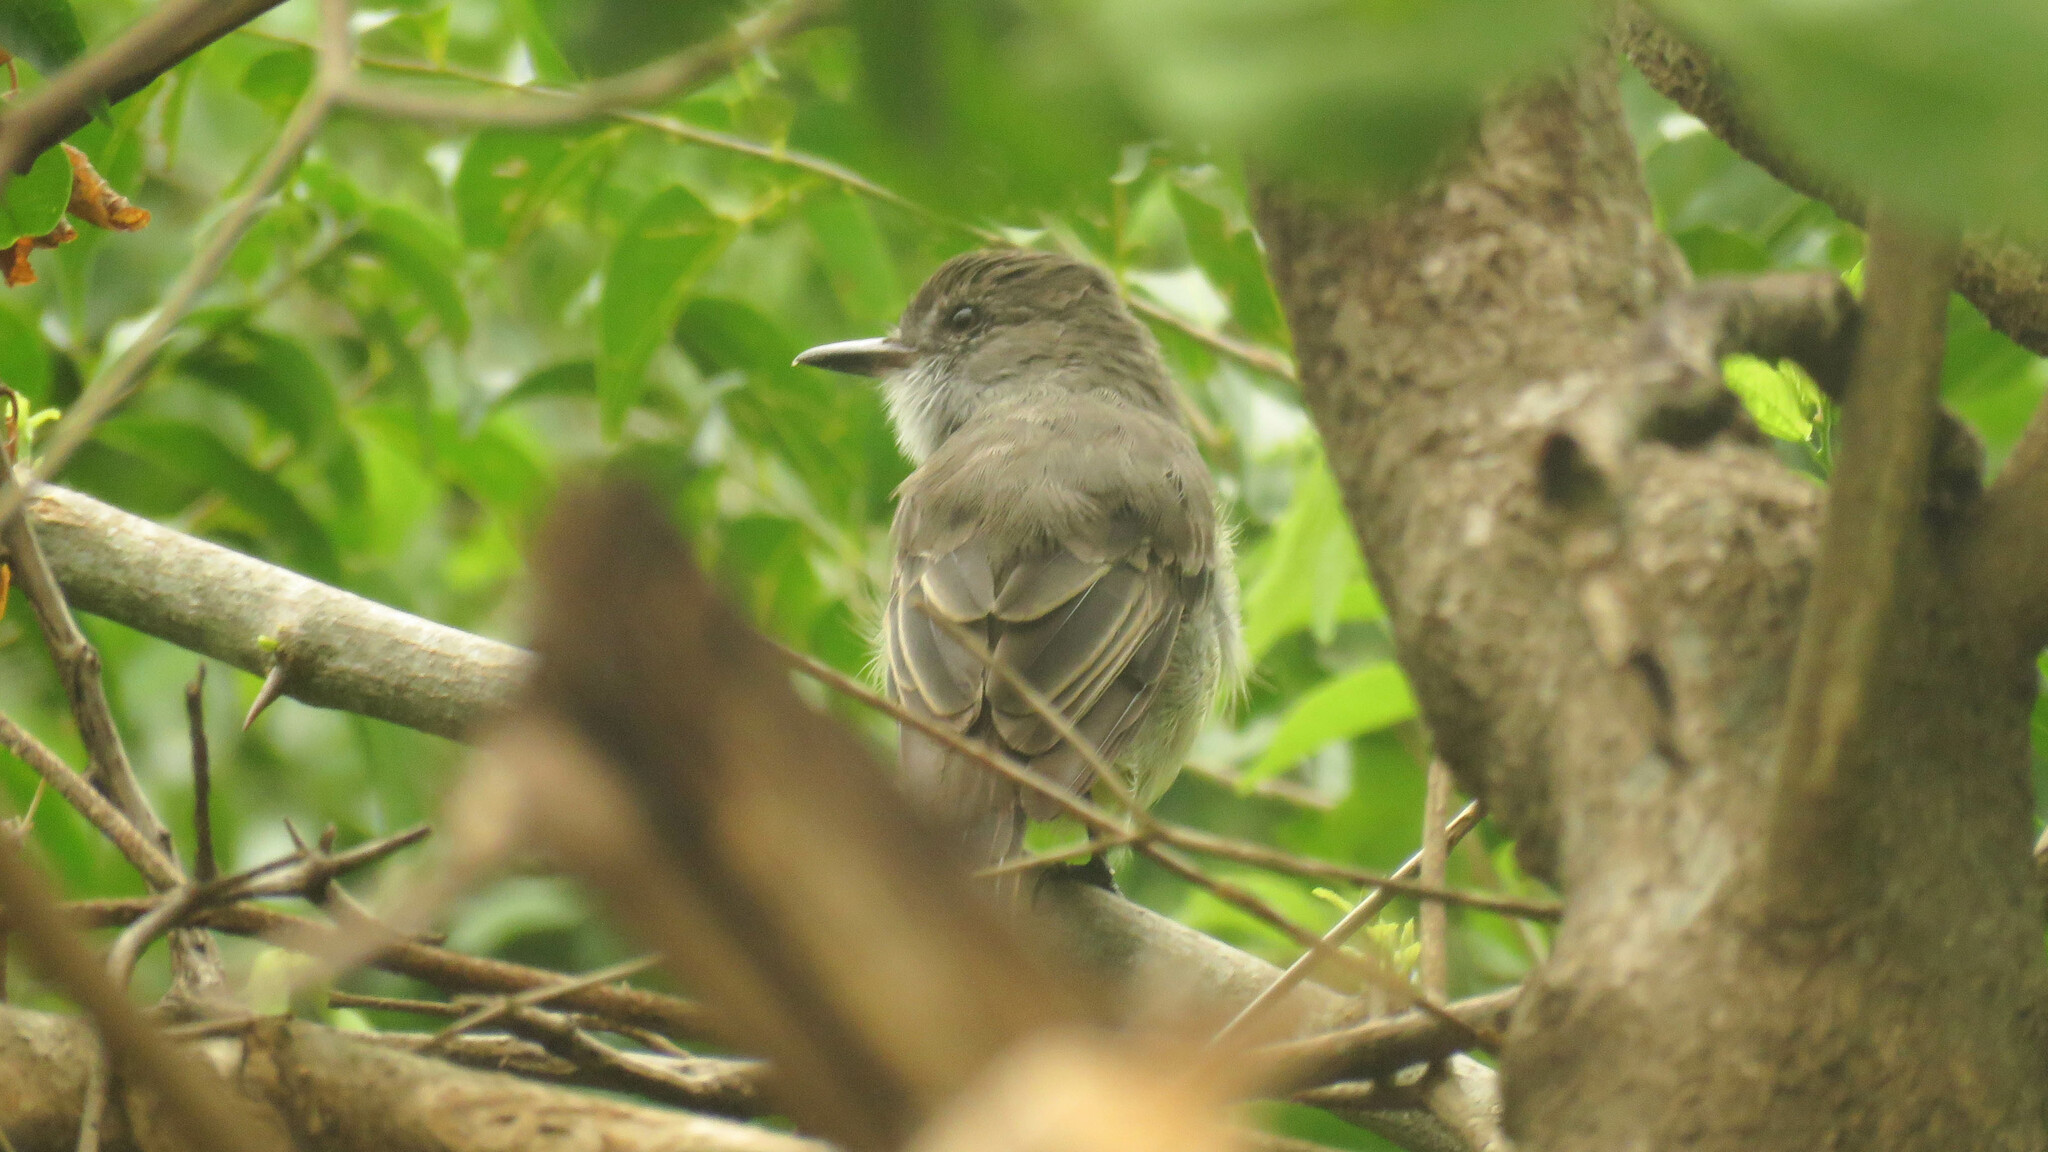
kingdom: Animalia
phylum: Chordata
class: Aves
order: Passeriformes
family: Tyrannidae
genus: Myiarchus
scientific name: Myiarchus ferox
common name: Short-crested flycatcher
